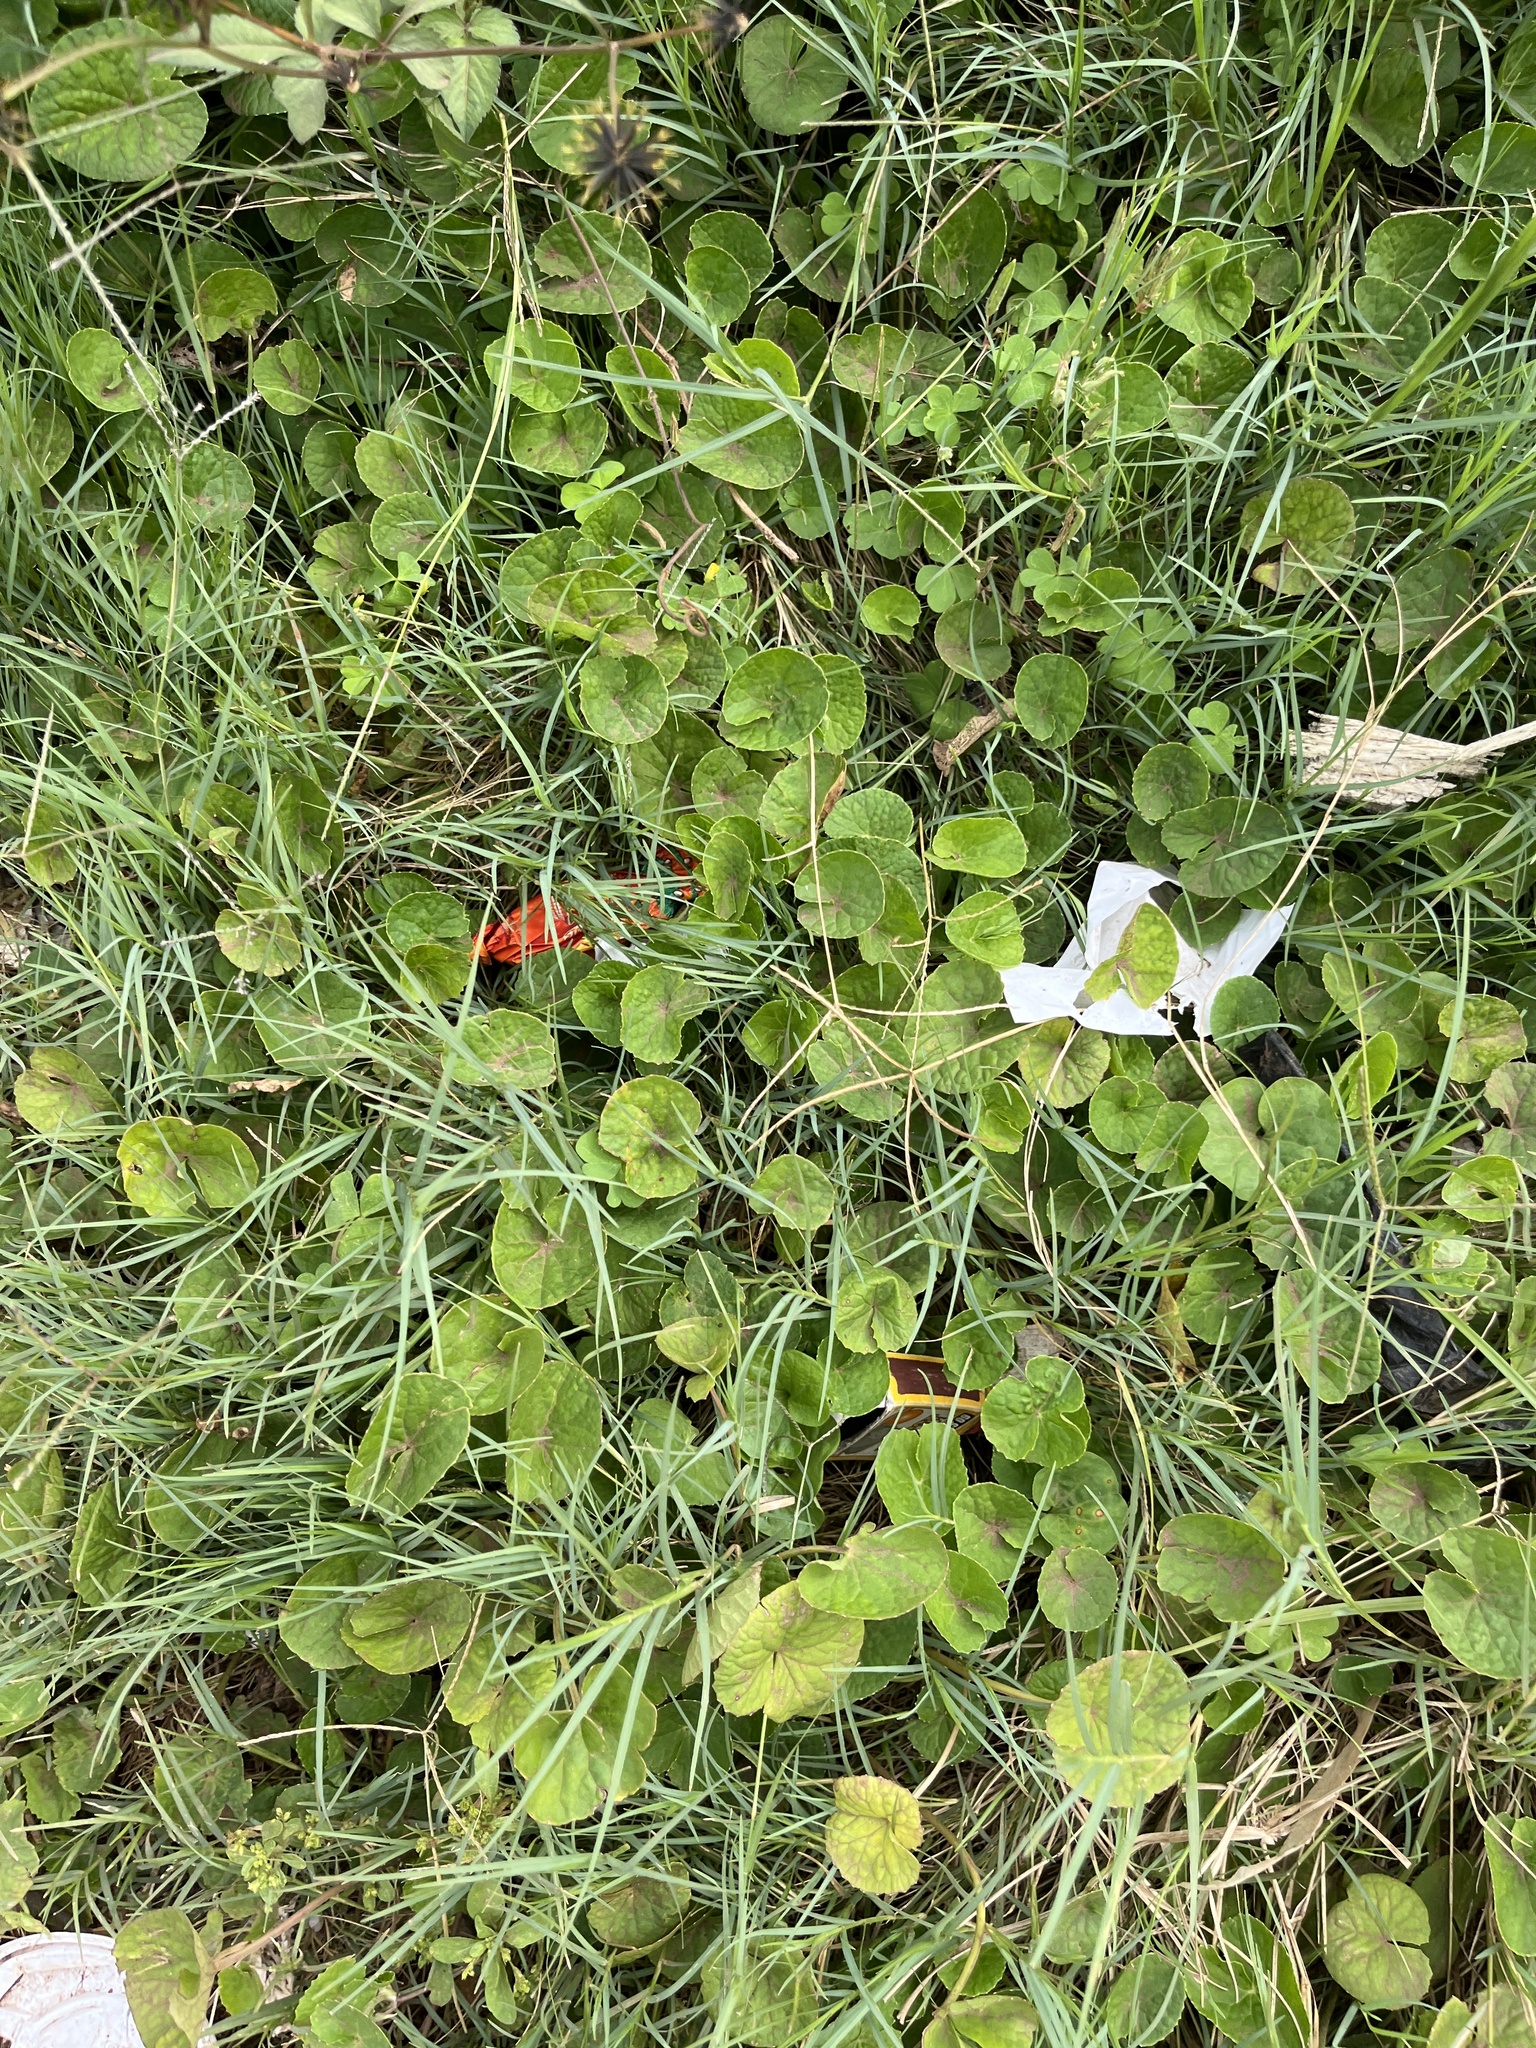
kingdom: Plantae
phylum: Tracheophyta
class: Magnoliopsida
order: Brassicales
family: Tropaeolaceae
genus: Tropaeolum
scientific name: Tropaeolum majus
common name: Nasturtium
